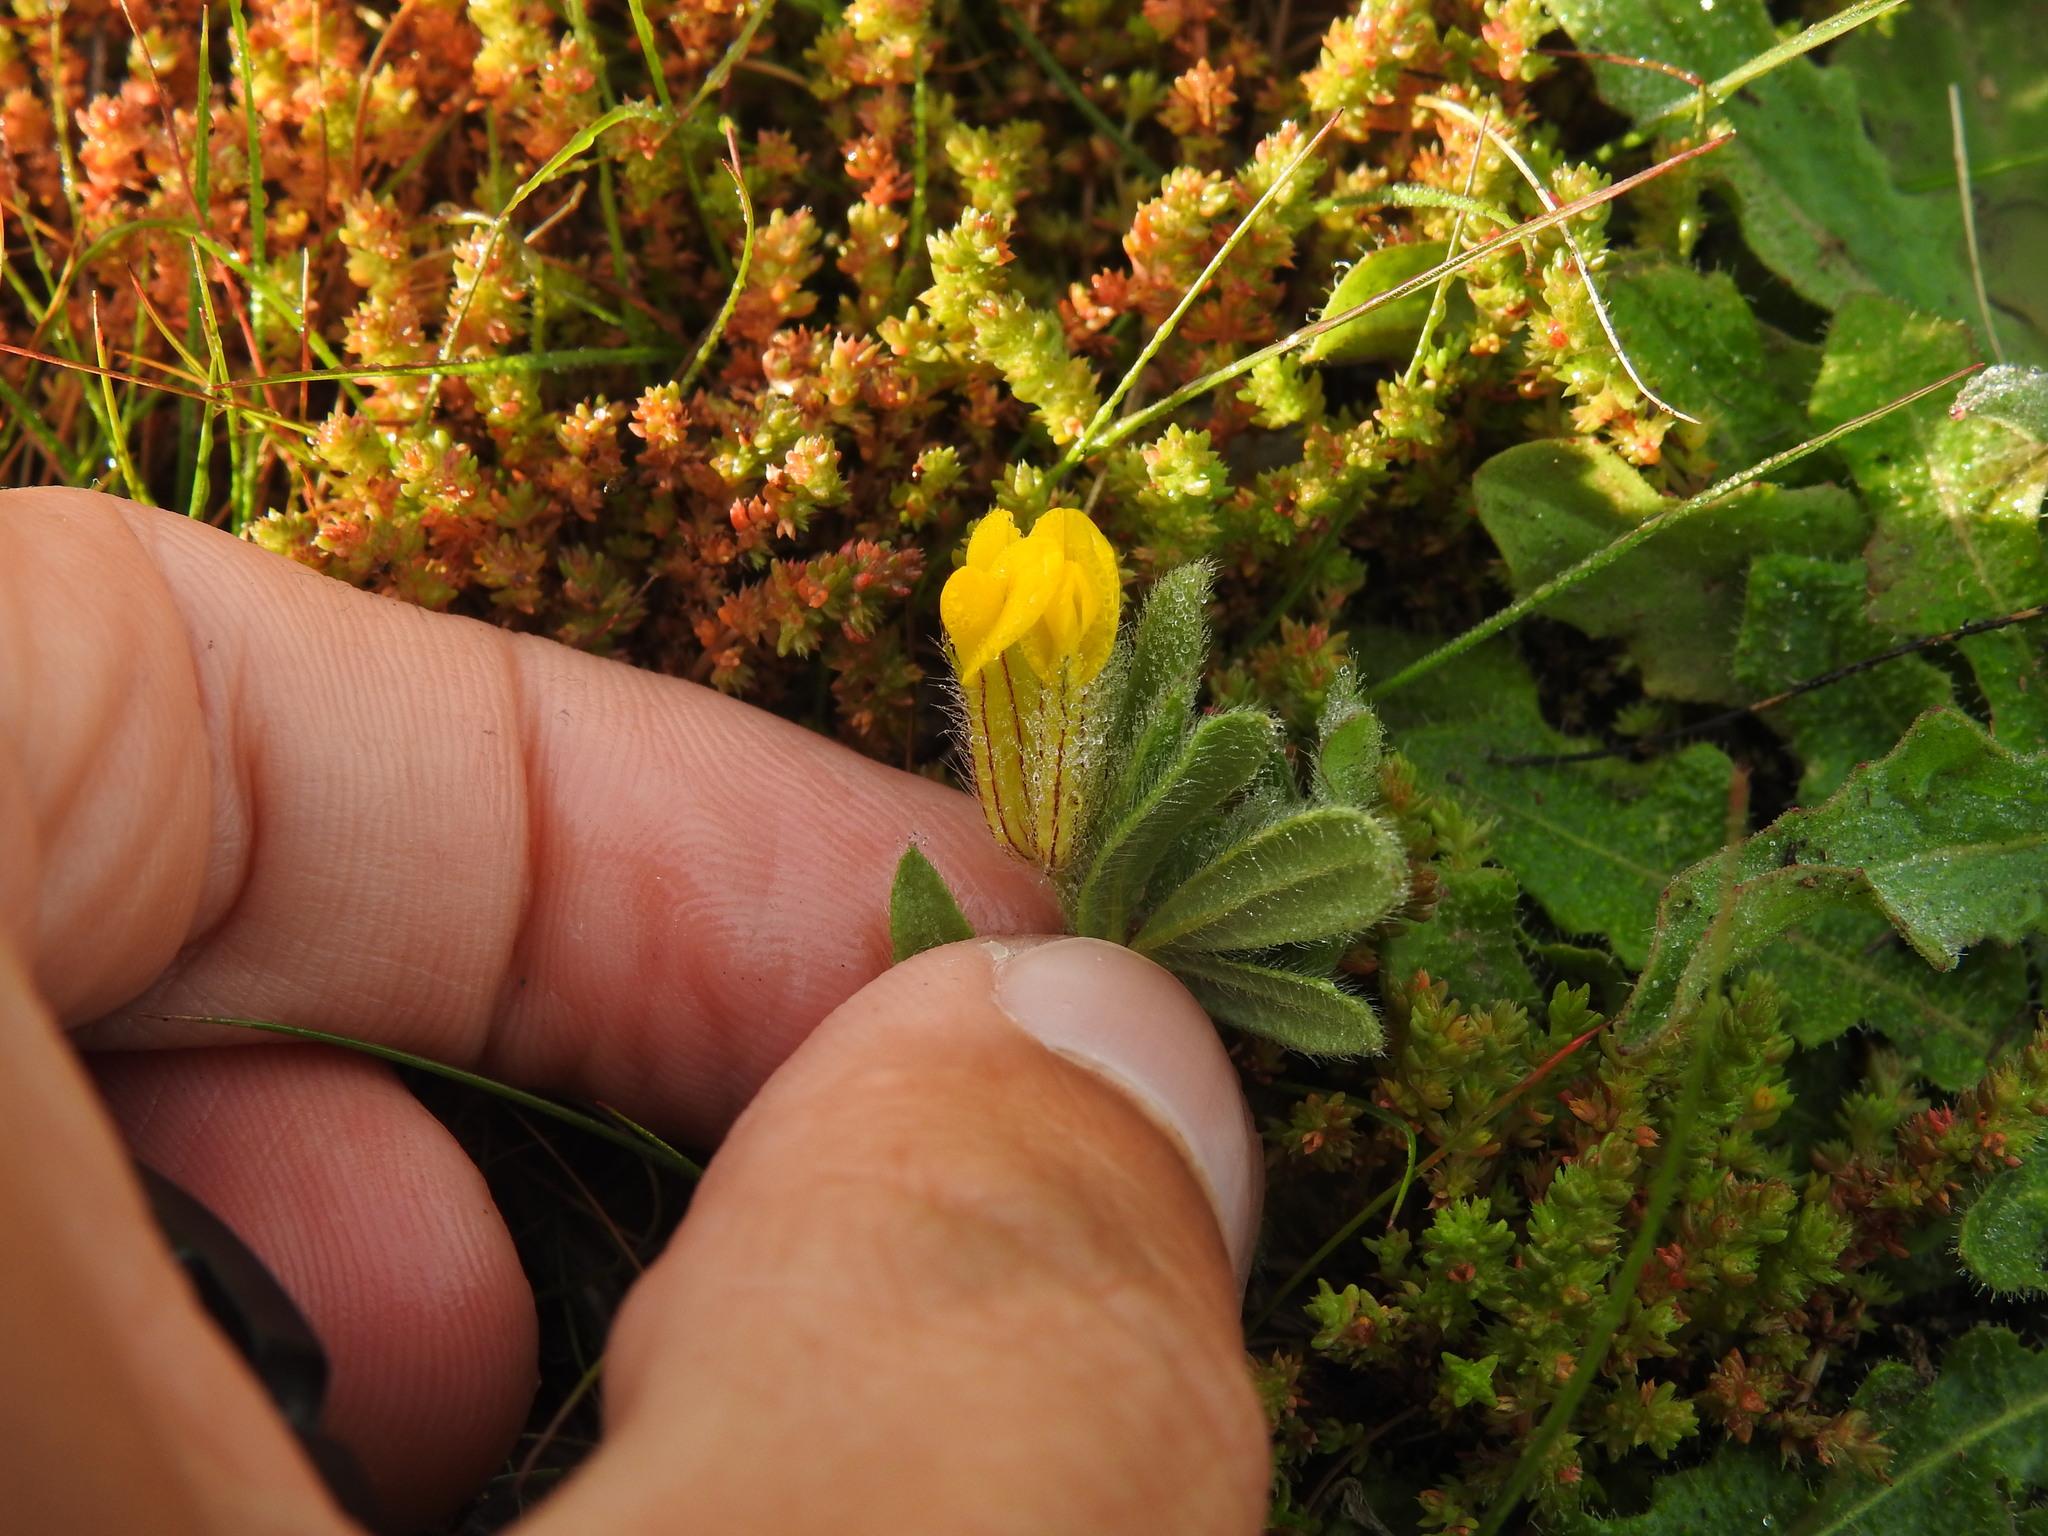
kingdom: Plantae
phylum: Tracheophyta
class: Magnoliopsida
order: Fabales
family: Fabaceae
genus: Anthyllis
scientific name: Anthyllis lotoides
